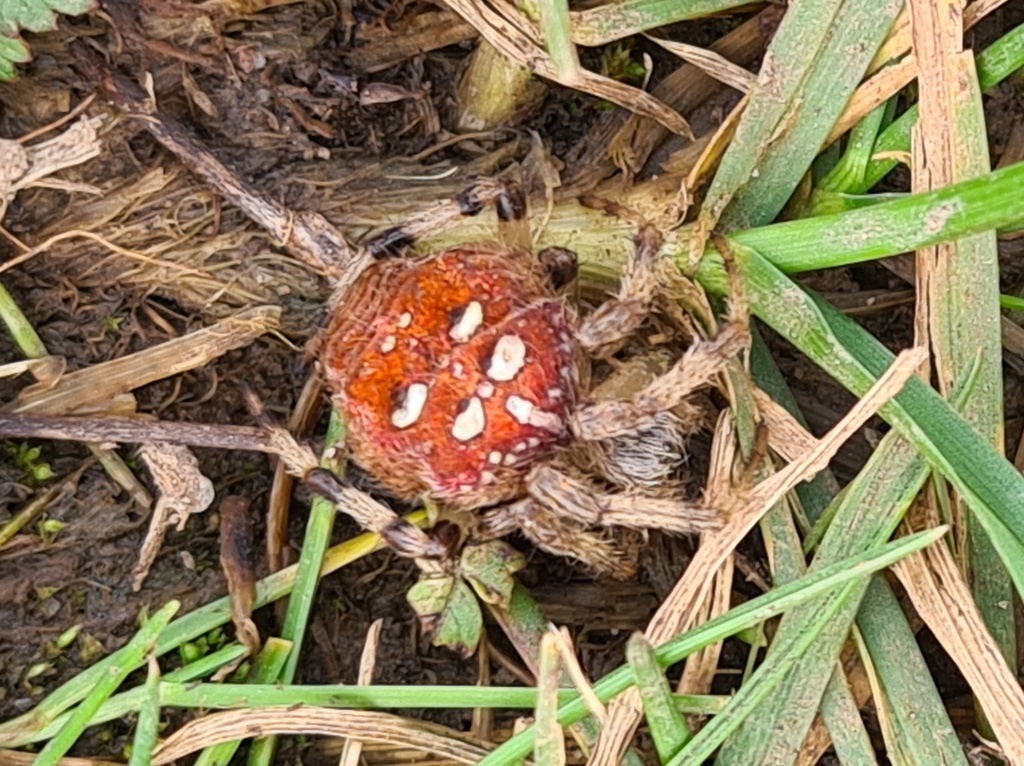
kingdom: Animalia
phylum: Arthropoda
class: Arachnida
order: Araneae
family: Araneidae
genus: Araneus
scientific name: Araneus quadratus
